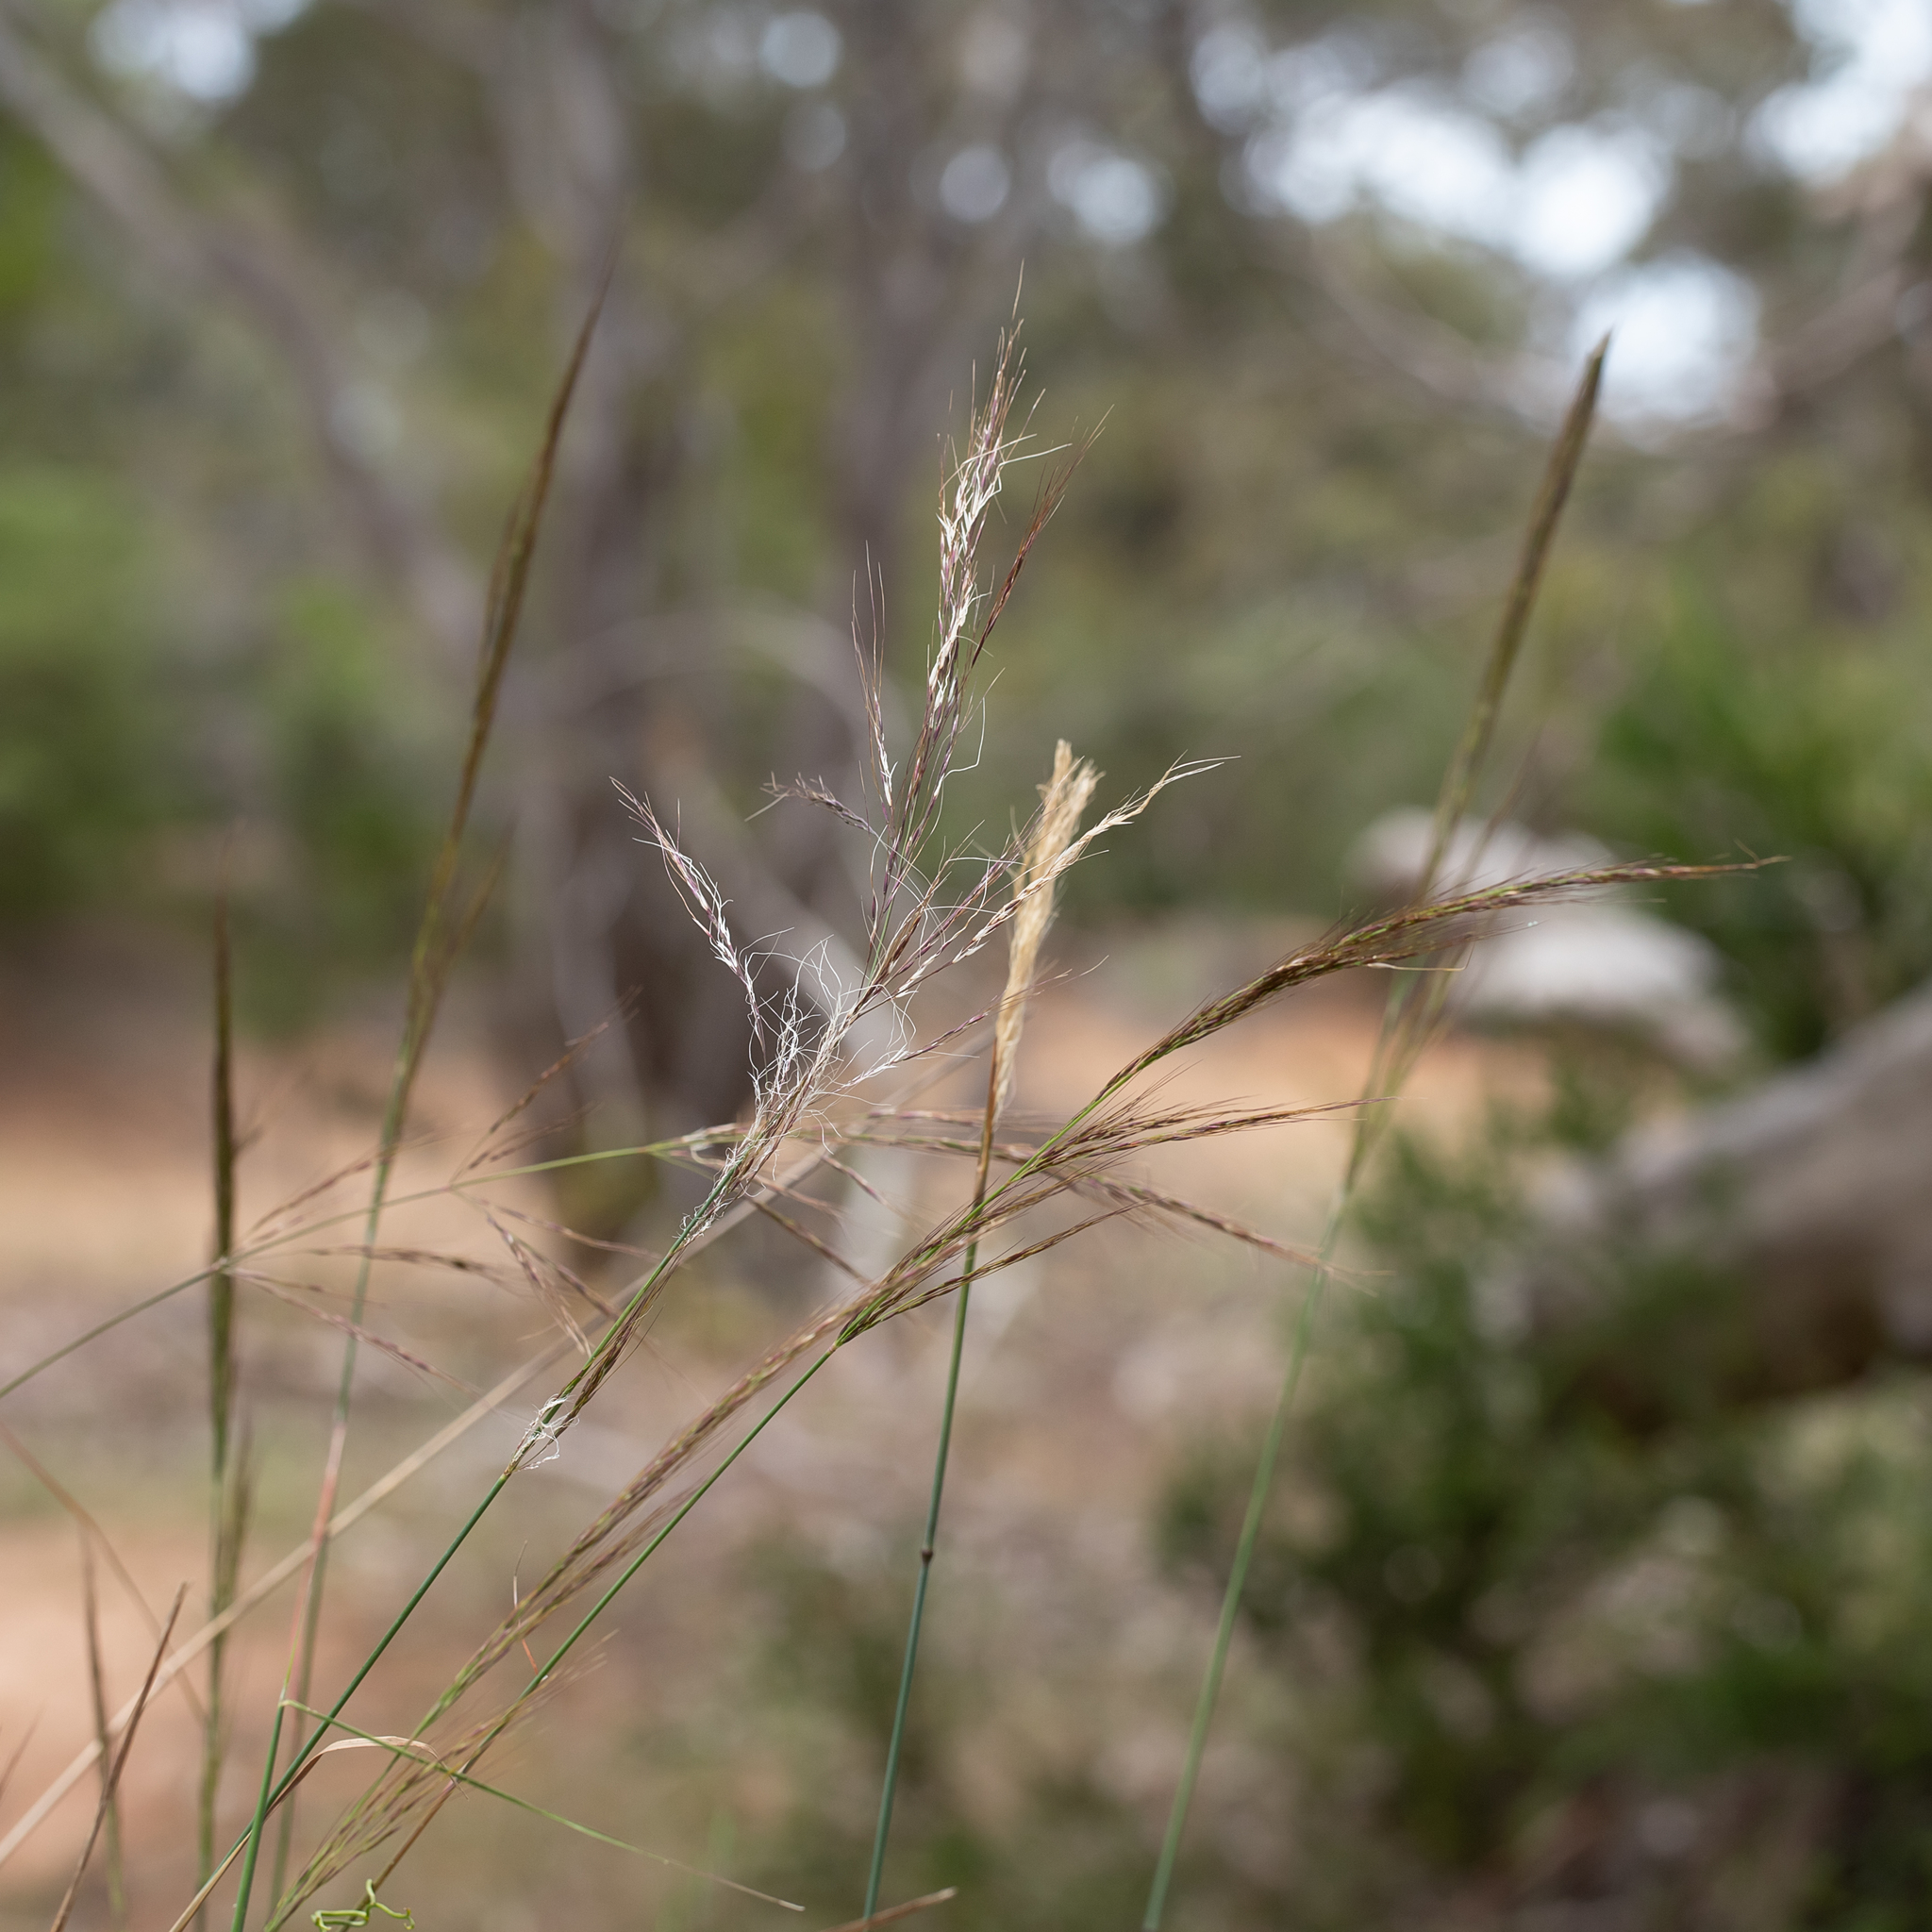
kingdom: Plantae
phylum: Tracheophyta
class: Liliopsida
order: Poales
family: Poaceae
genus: Austrostipa
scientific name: Austrostipa breviglumis
